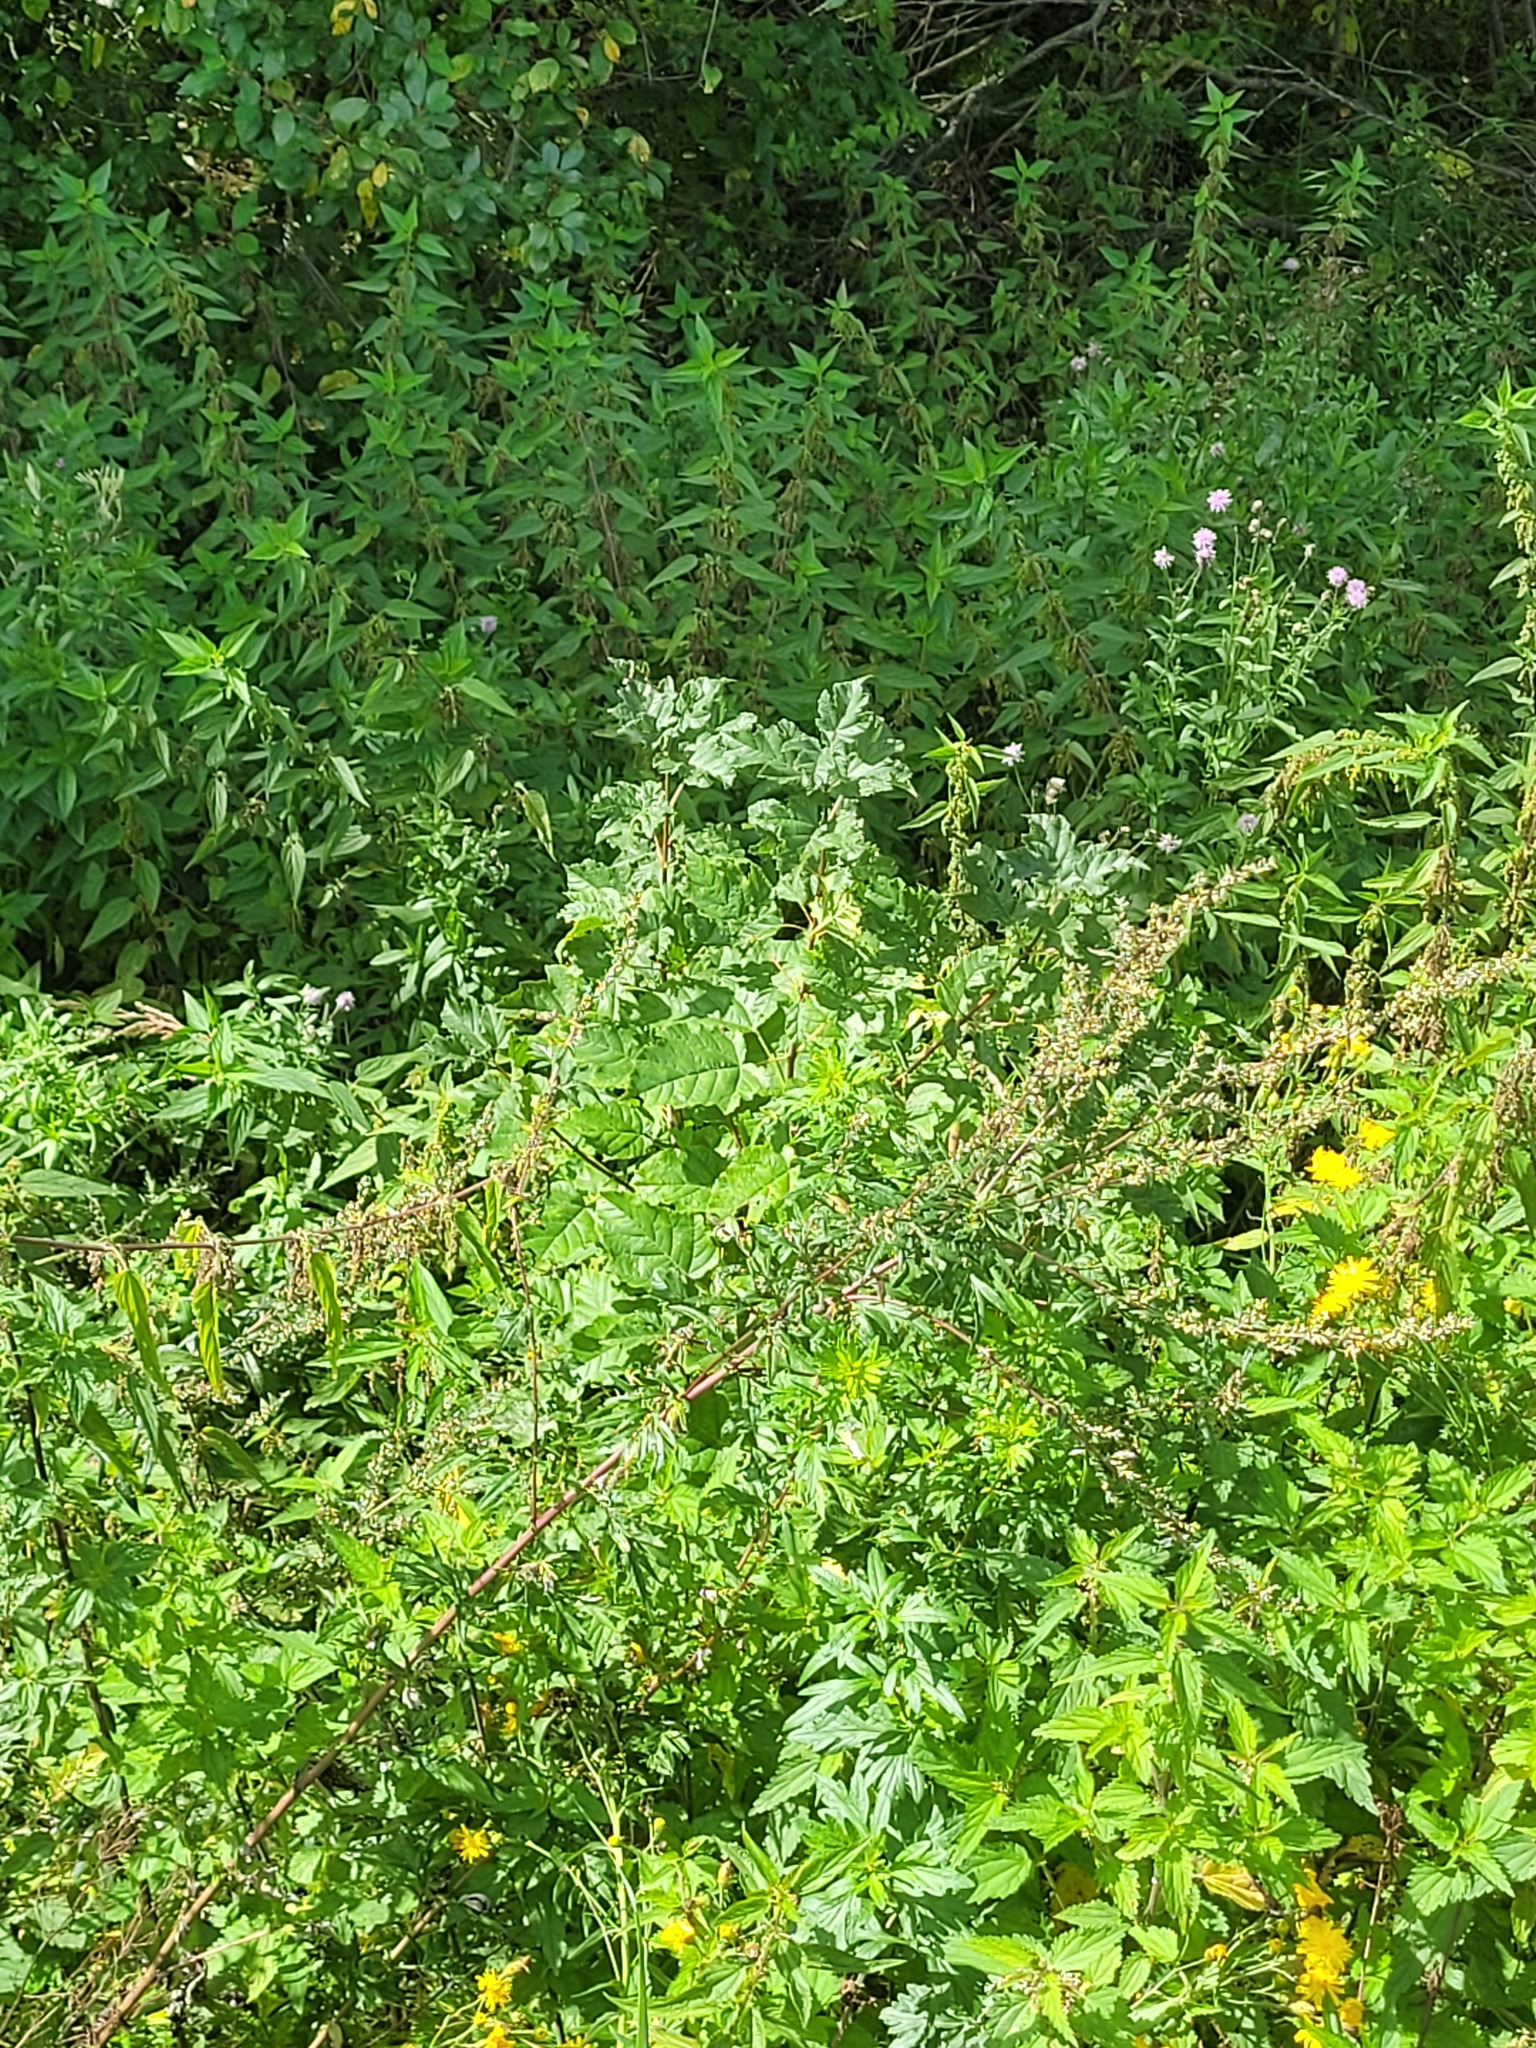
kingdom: Plantae
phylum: Tracheophyta
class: Magnoliopsida
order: Sapindales
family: Sapindaceae
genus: Acer
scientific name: Acer tataricum
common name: Tartar maple
